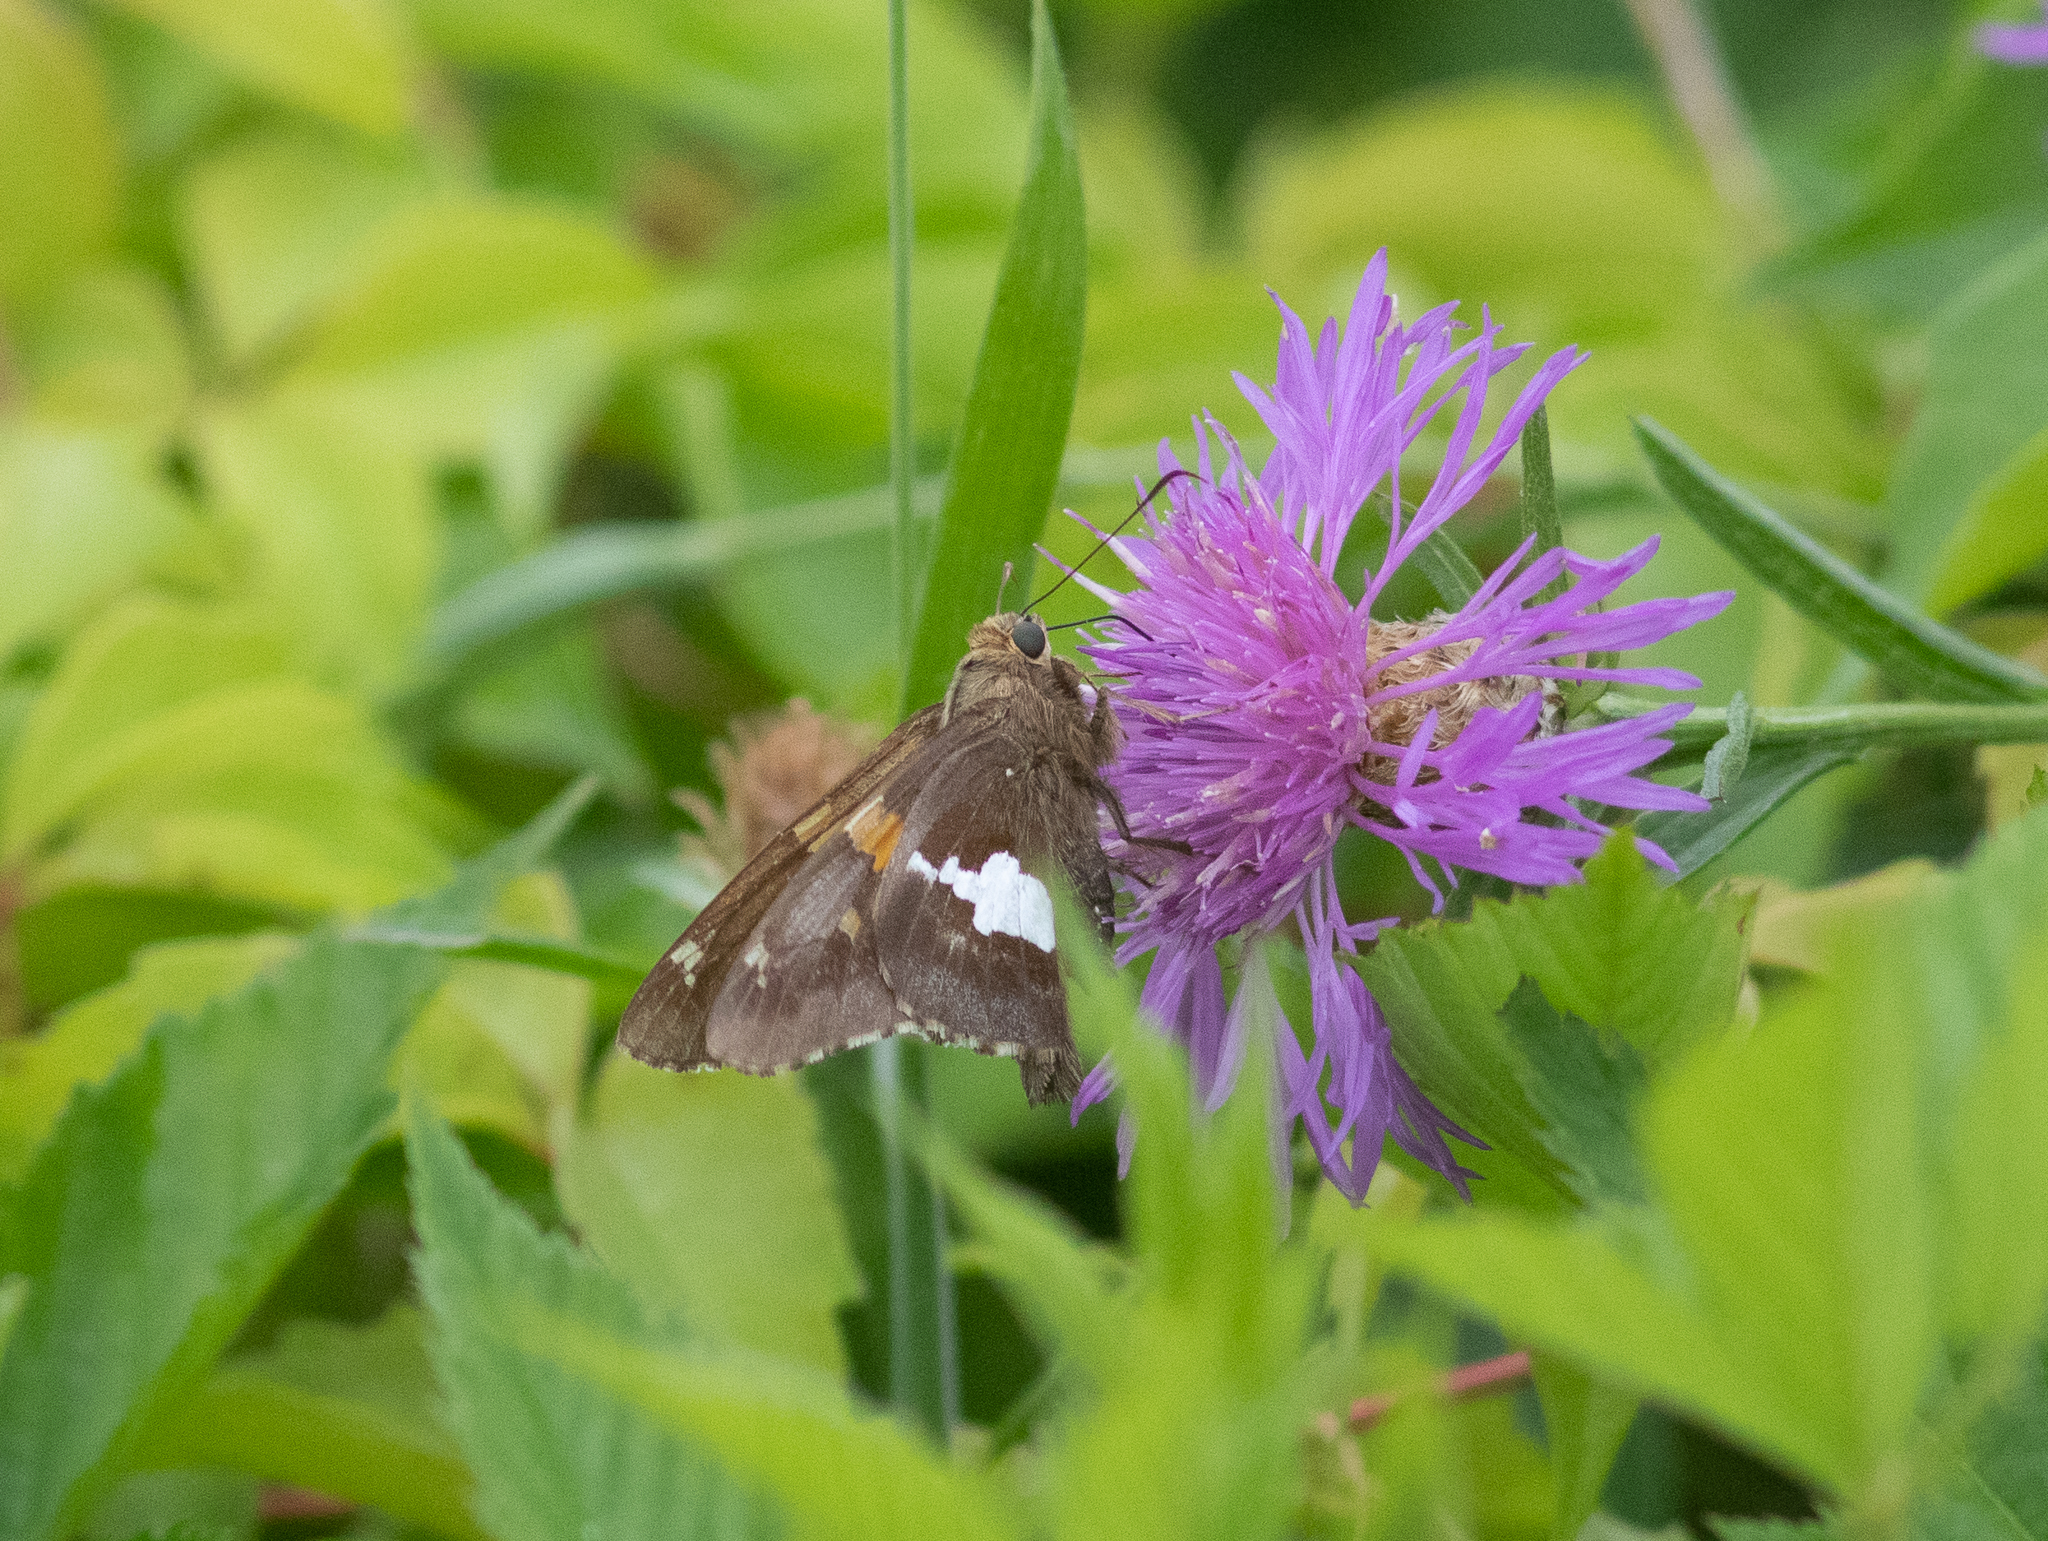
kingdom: Animalia
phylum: Arthropoda
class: Insecta
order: Lepidoptera
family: Hesperiidae
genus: Epargyreus
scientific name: Epargyreus clarus
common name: Silver-spotted skipper
